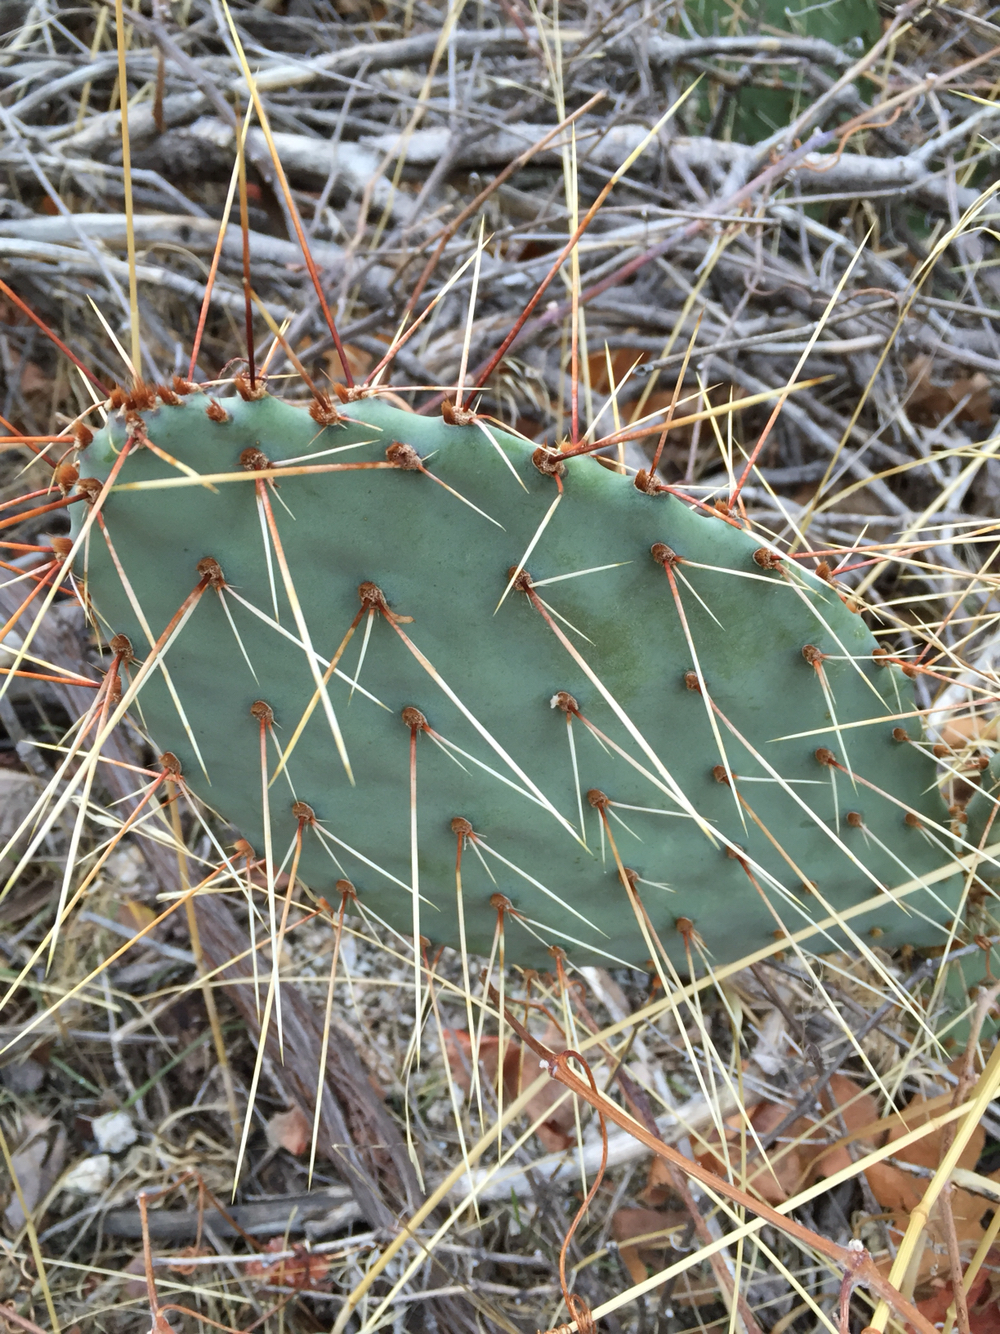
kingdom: Plantae
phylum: Tracheophyta
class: Magnoliopsida
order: Caryophyllales
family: Cactaceae
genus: Opuntia
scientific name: Opuntia phaeacantha
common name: New mexico prickly-pear
